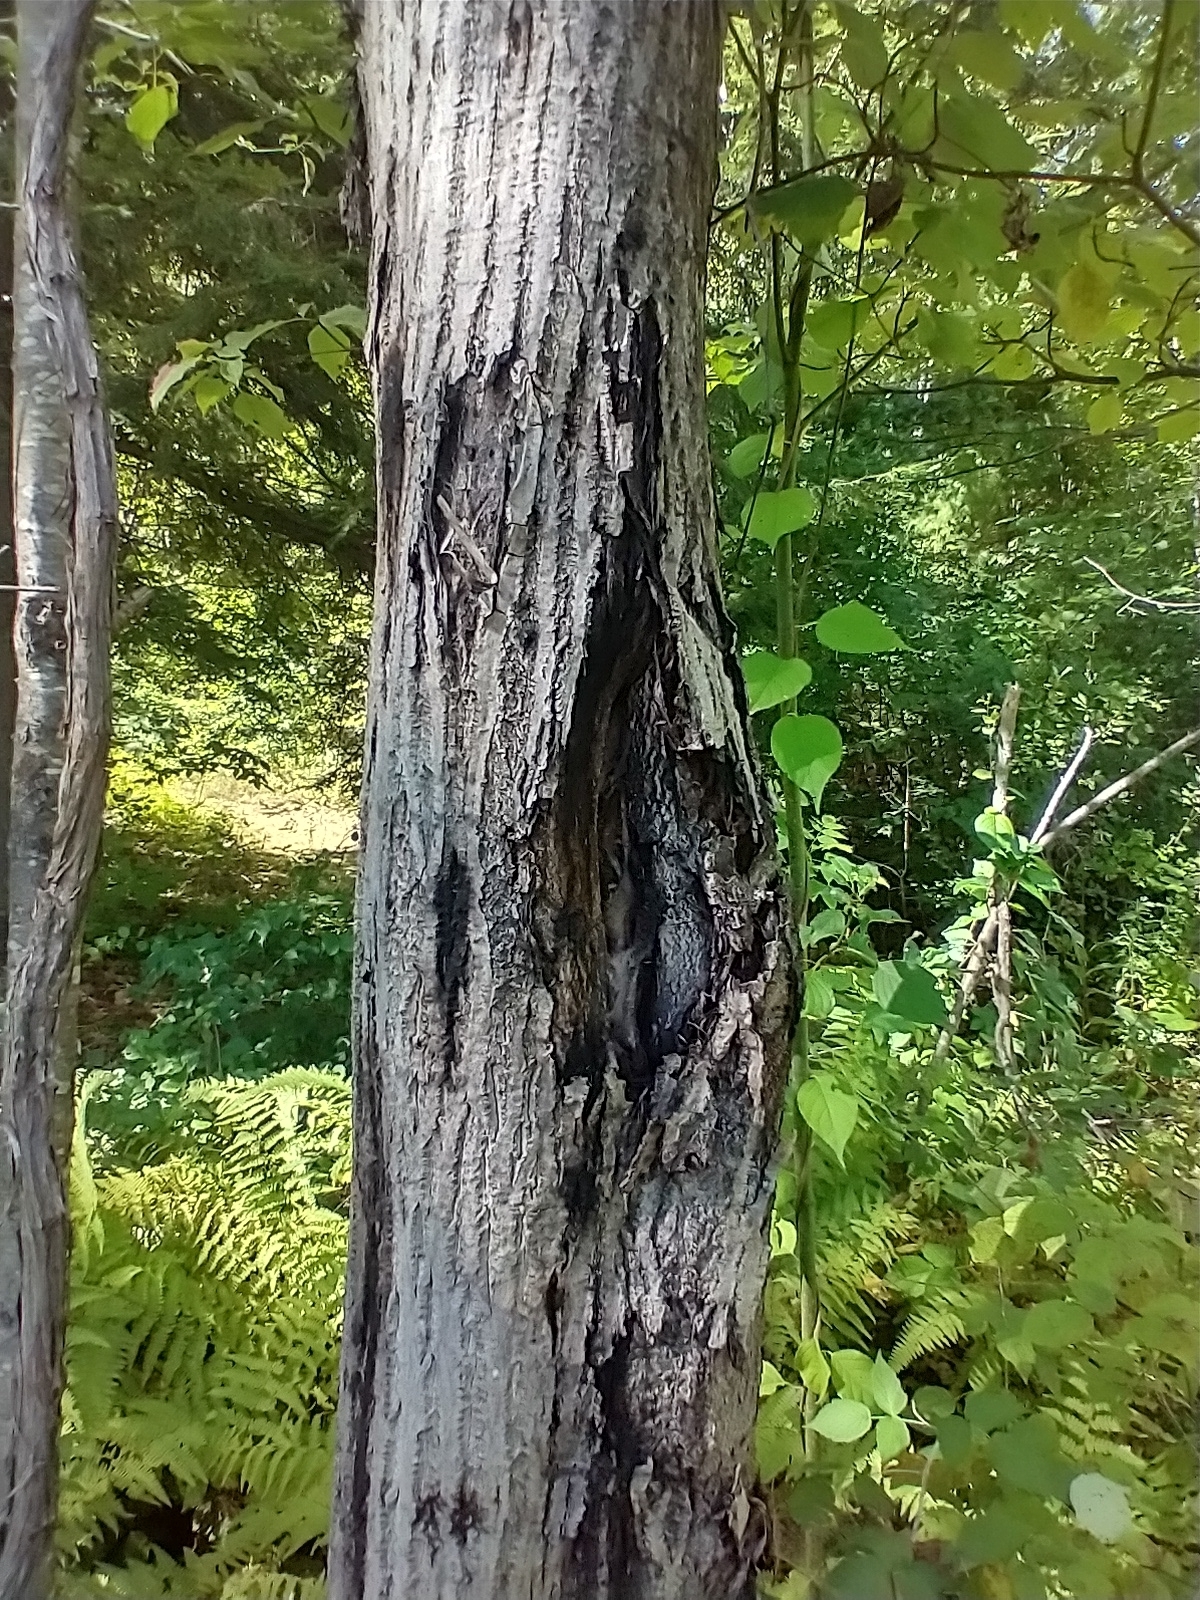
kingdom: Fungi
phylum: Ascomycota
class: Sordariomycetes
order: Diaporthales
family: Gnomoniaceae
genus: Ophiognomonia
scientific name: Ophiognomonia clavigignenti-juglandacearum
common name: Butternut canker fungus
